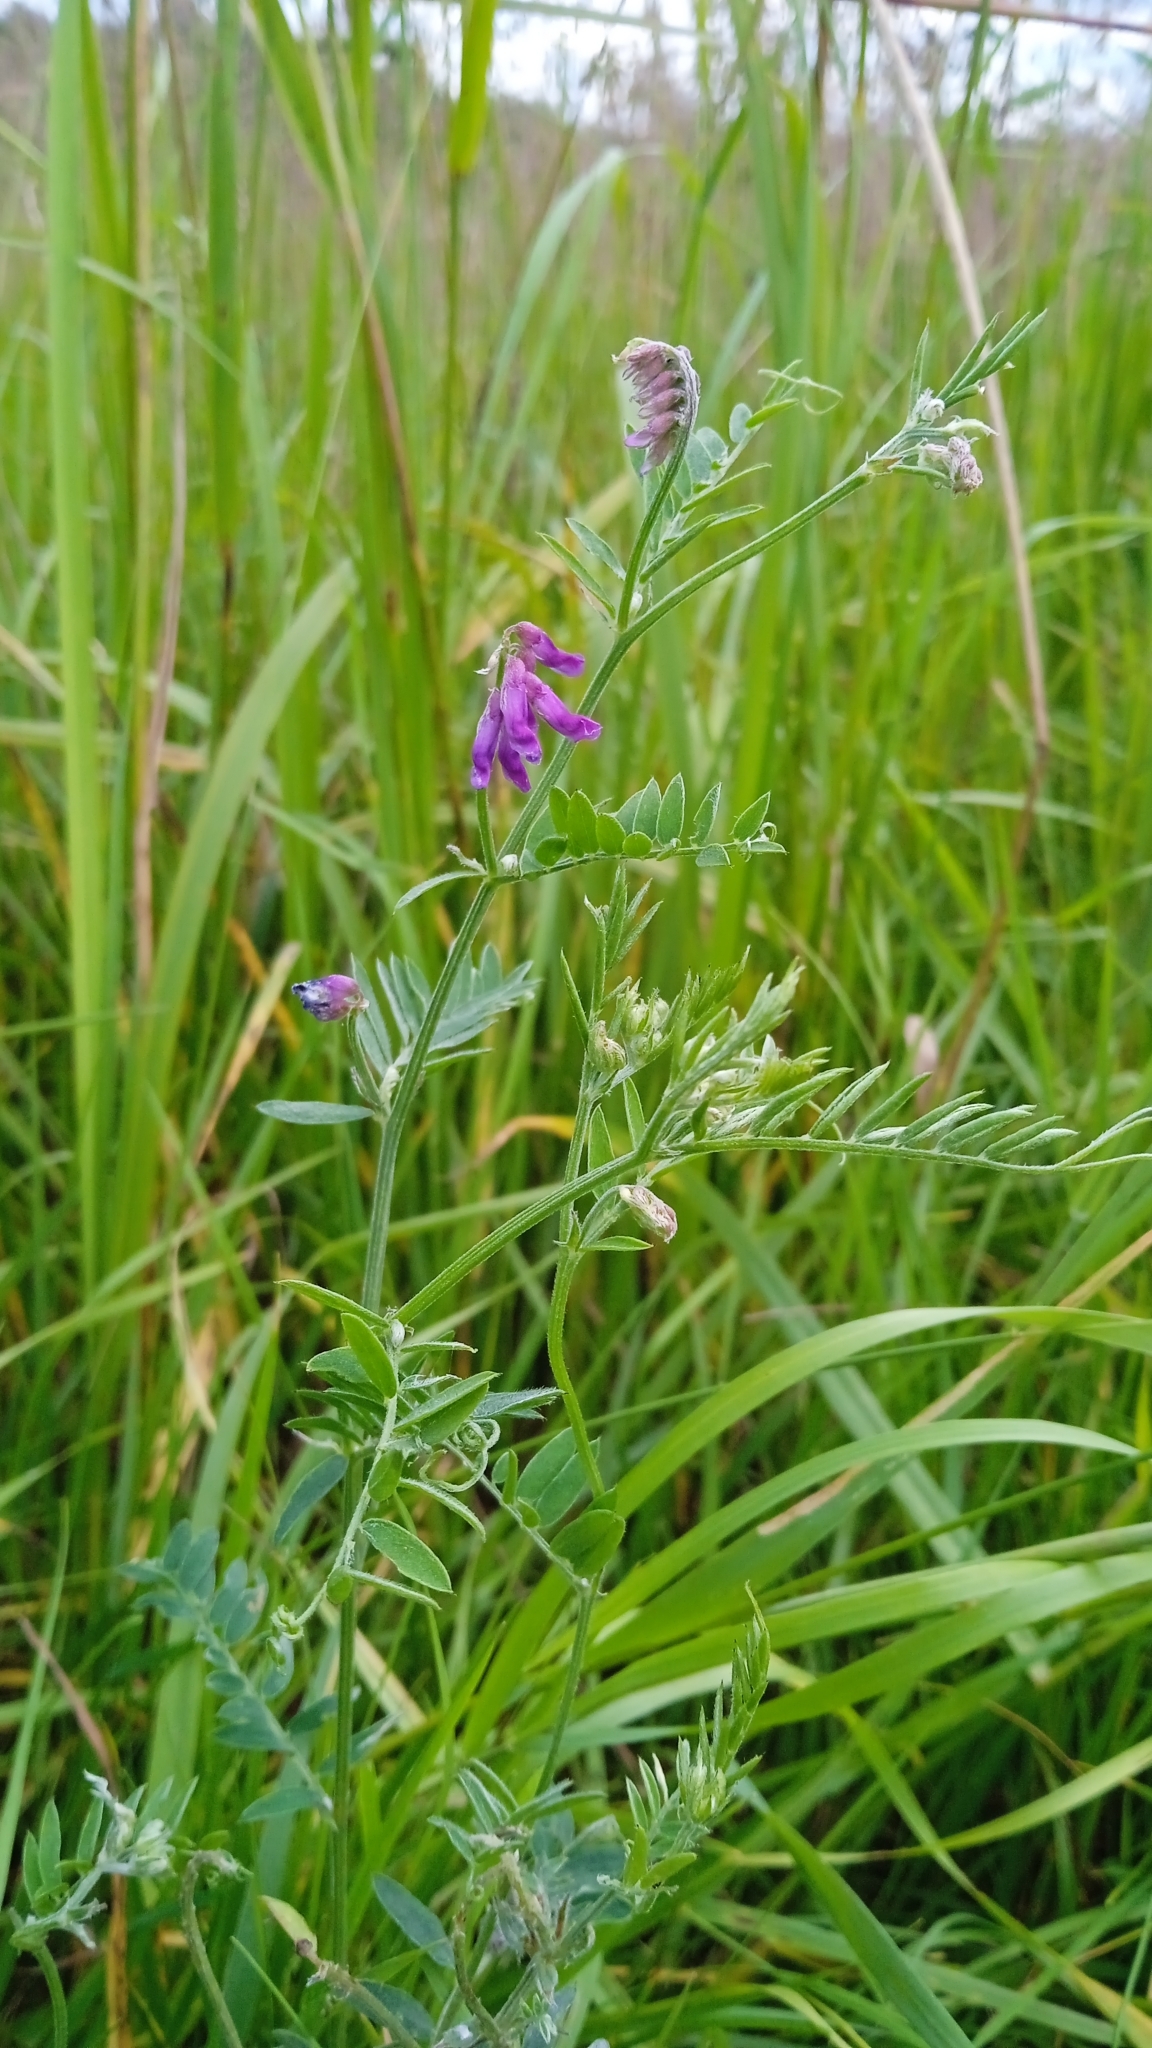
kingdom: Plantae
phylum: Tracheophyta
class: Magnoliopsida
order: Fabales
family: Fabaceae
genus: Vicia
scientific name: Vicia cracca
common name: Bird vetch
